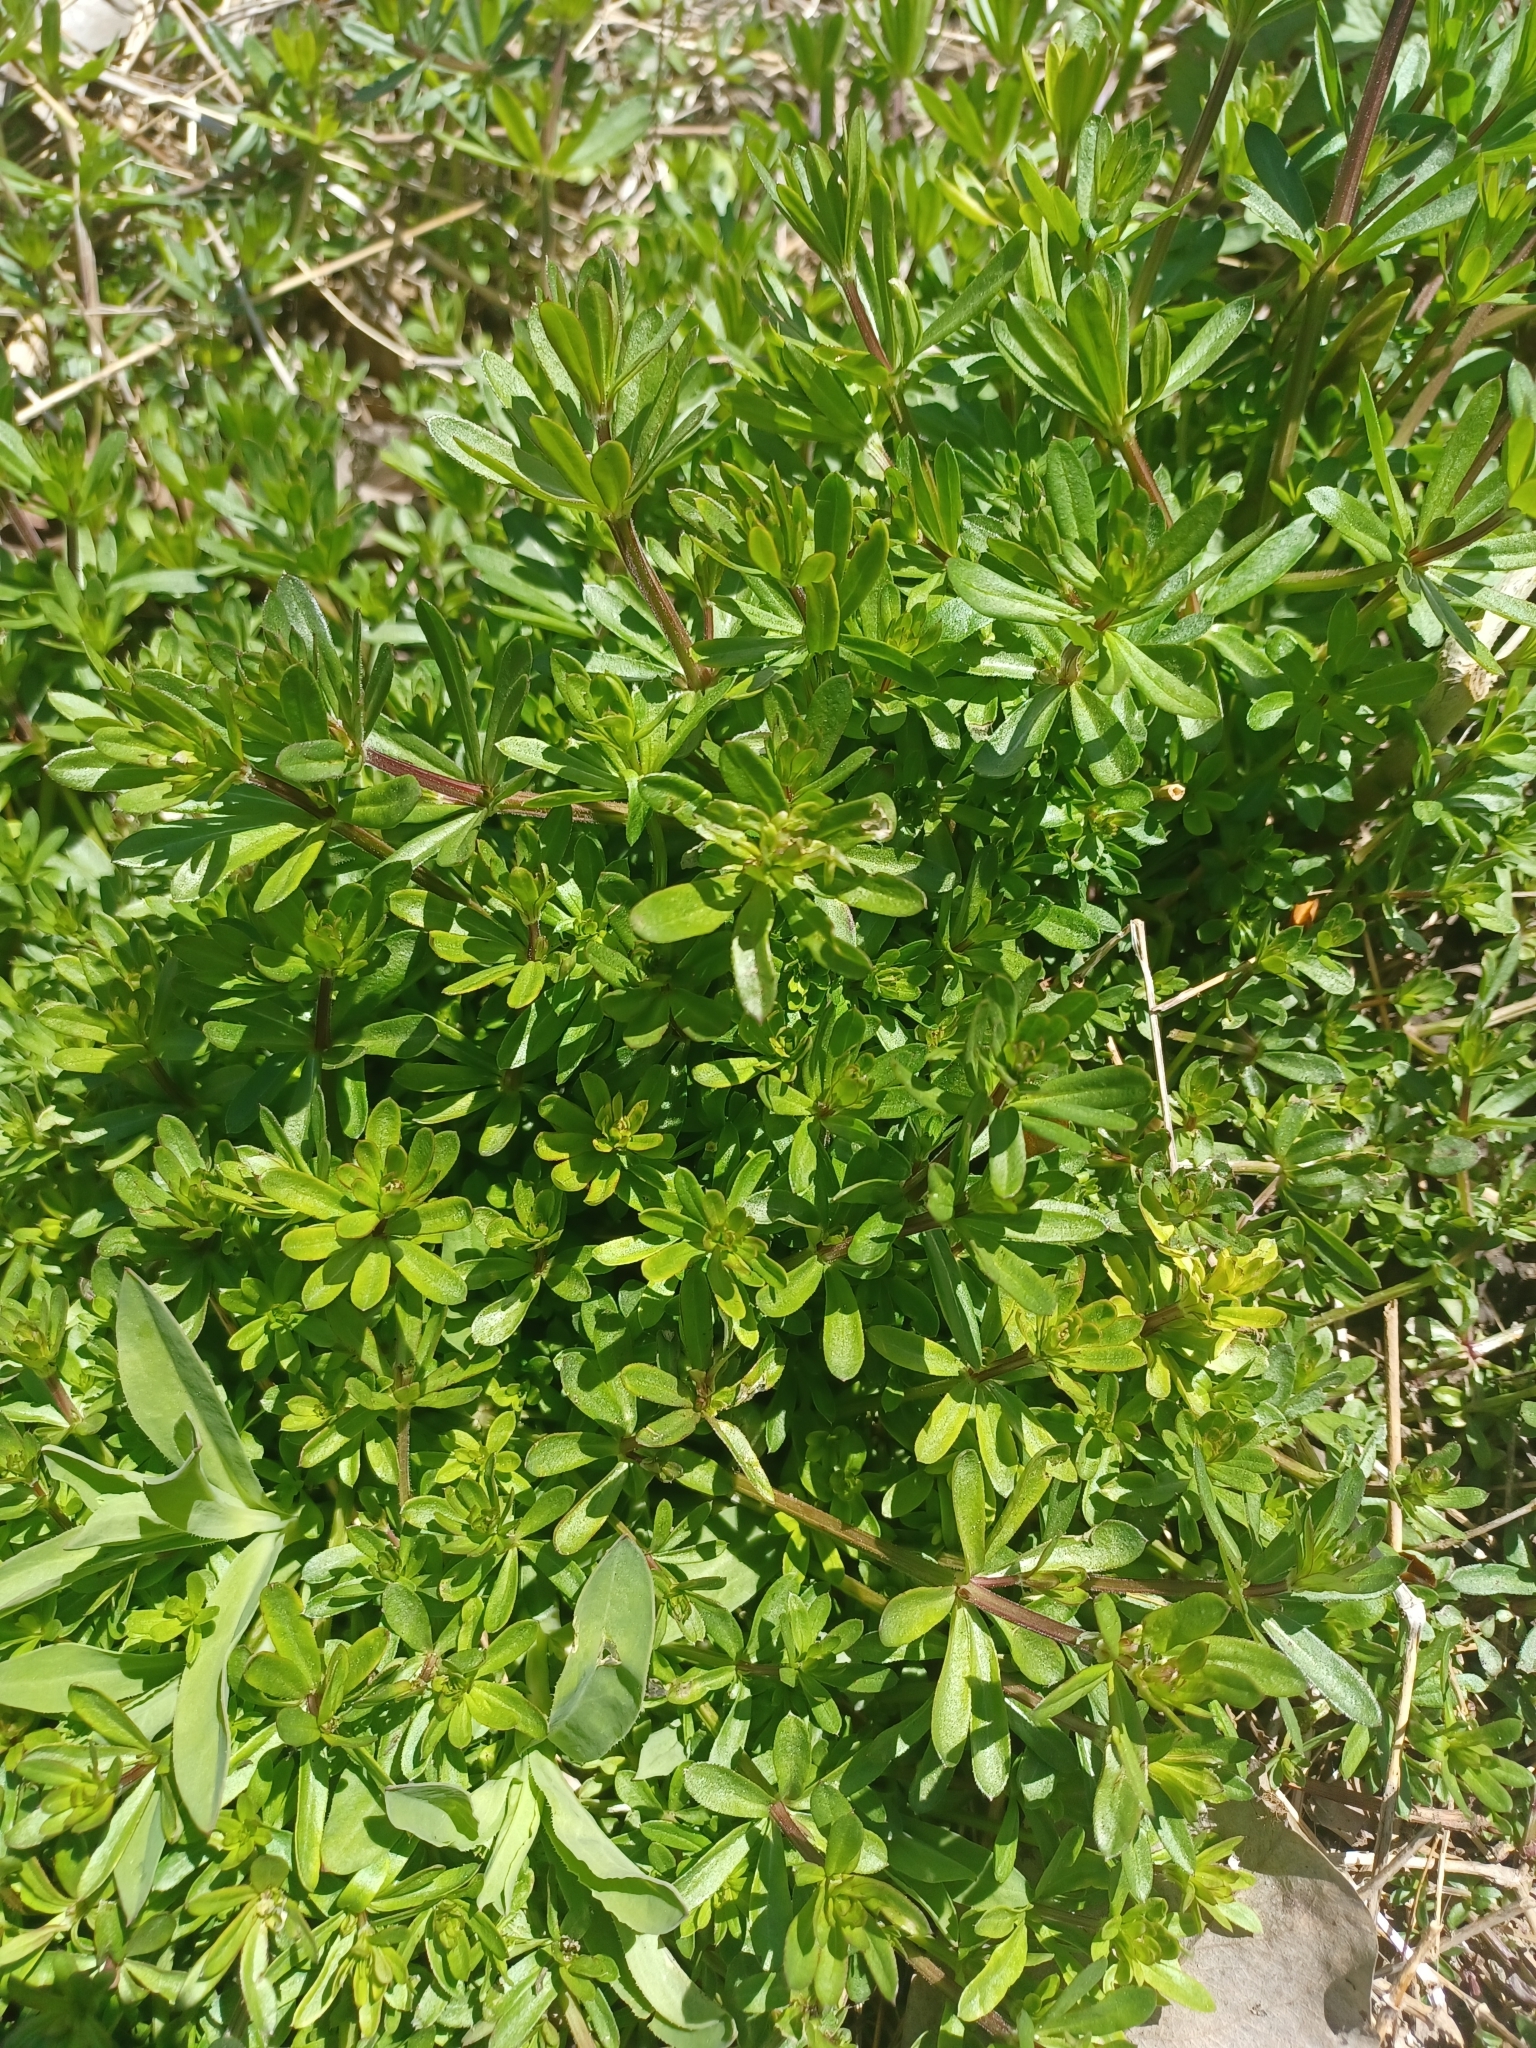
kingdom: Plantae
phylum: Tracheophyta
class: Magnoliopsida
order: Gentianales
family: Rubiaceae
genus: Galium
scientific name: Galium mollugo
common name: Hedge bedstraw
